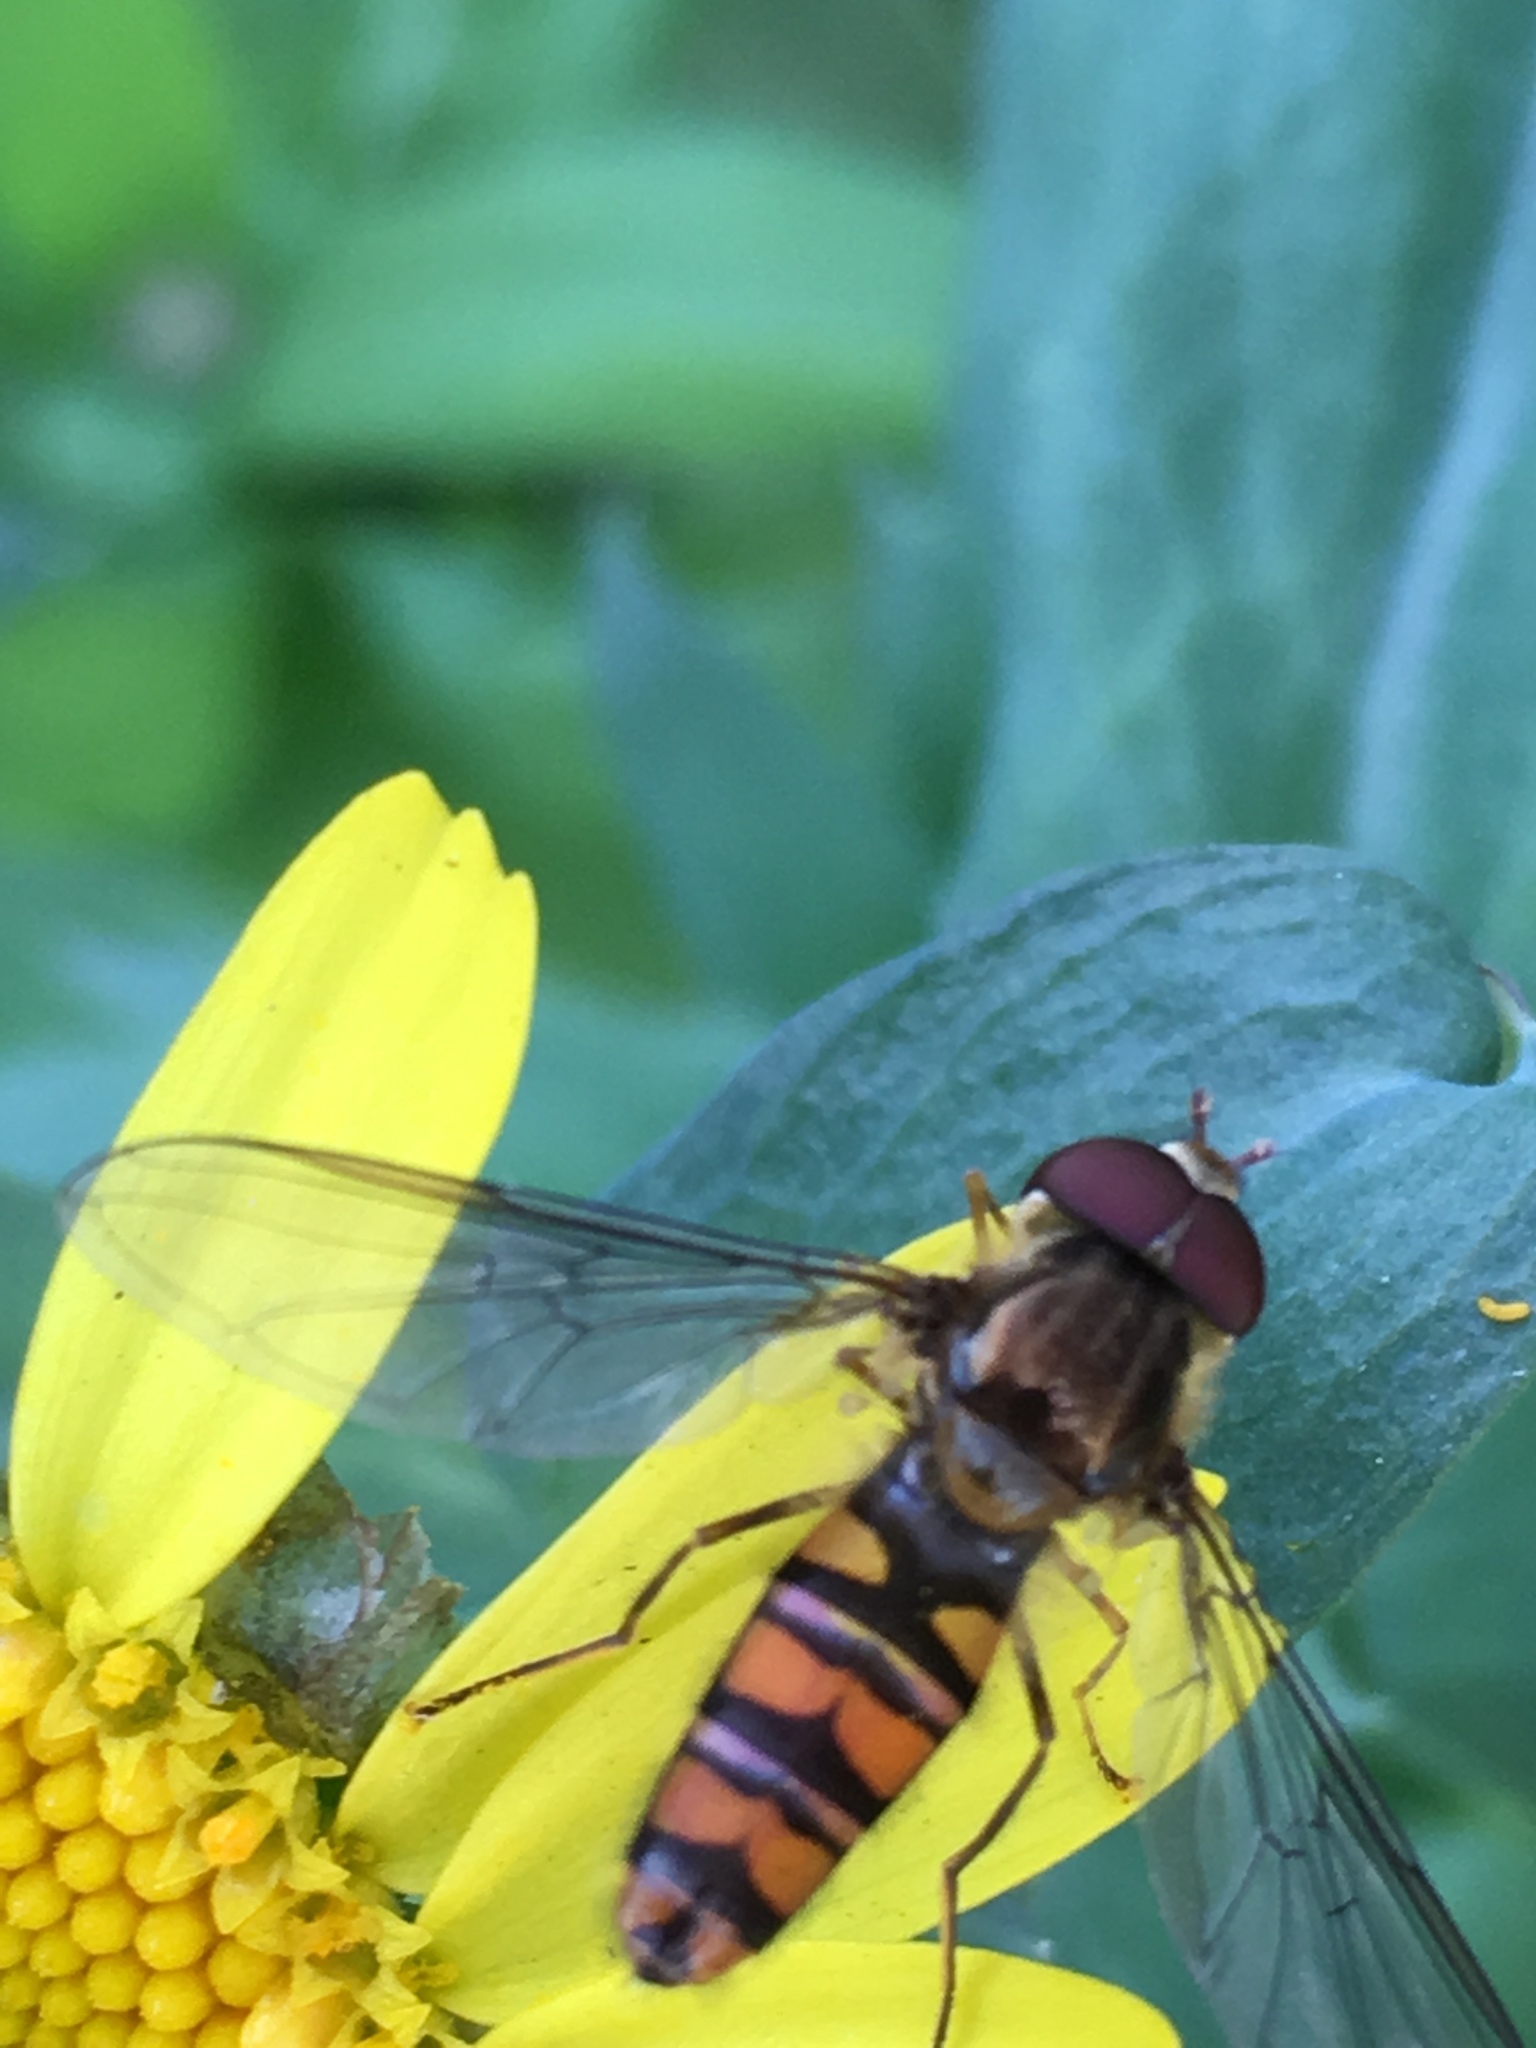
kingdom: Animalia
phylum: Arthropoda
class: Insecta
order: Diptera
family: Syrphidae
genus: Episyrphus
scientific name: Episyrphus balteatus
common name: Marmalade hoverfly
